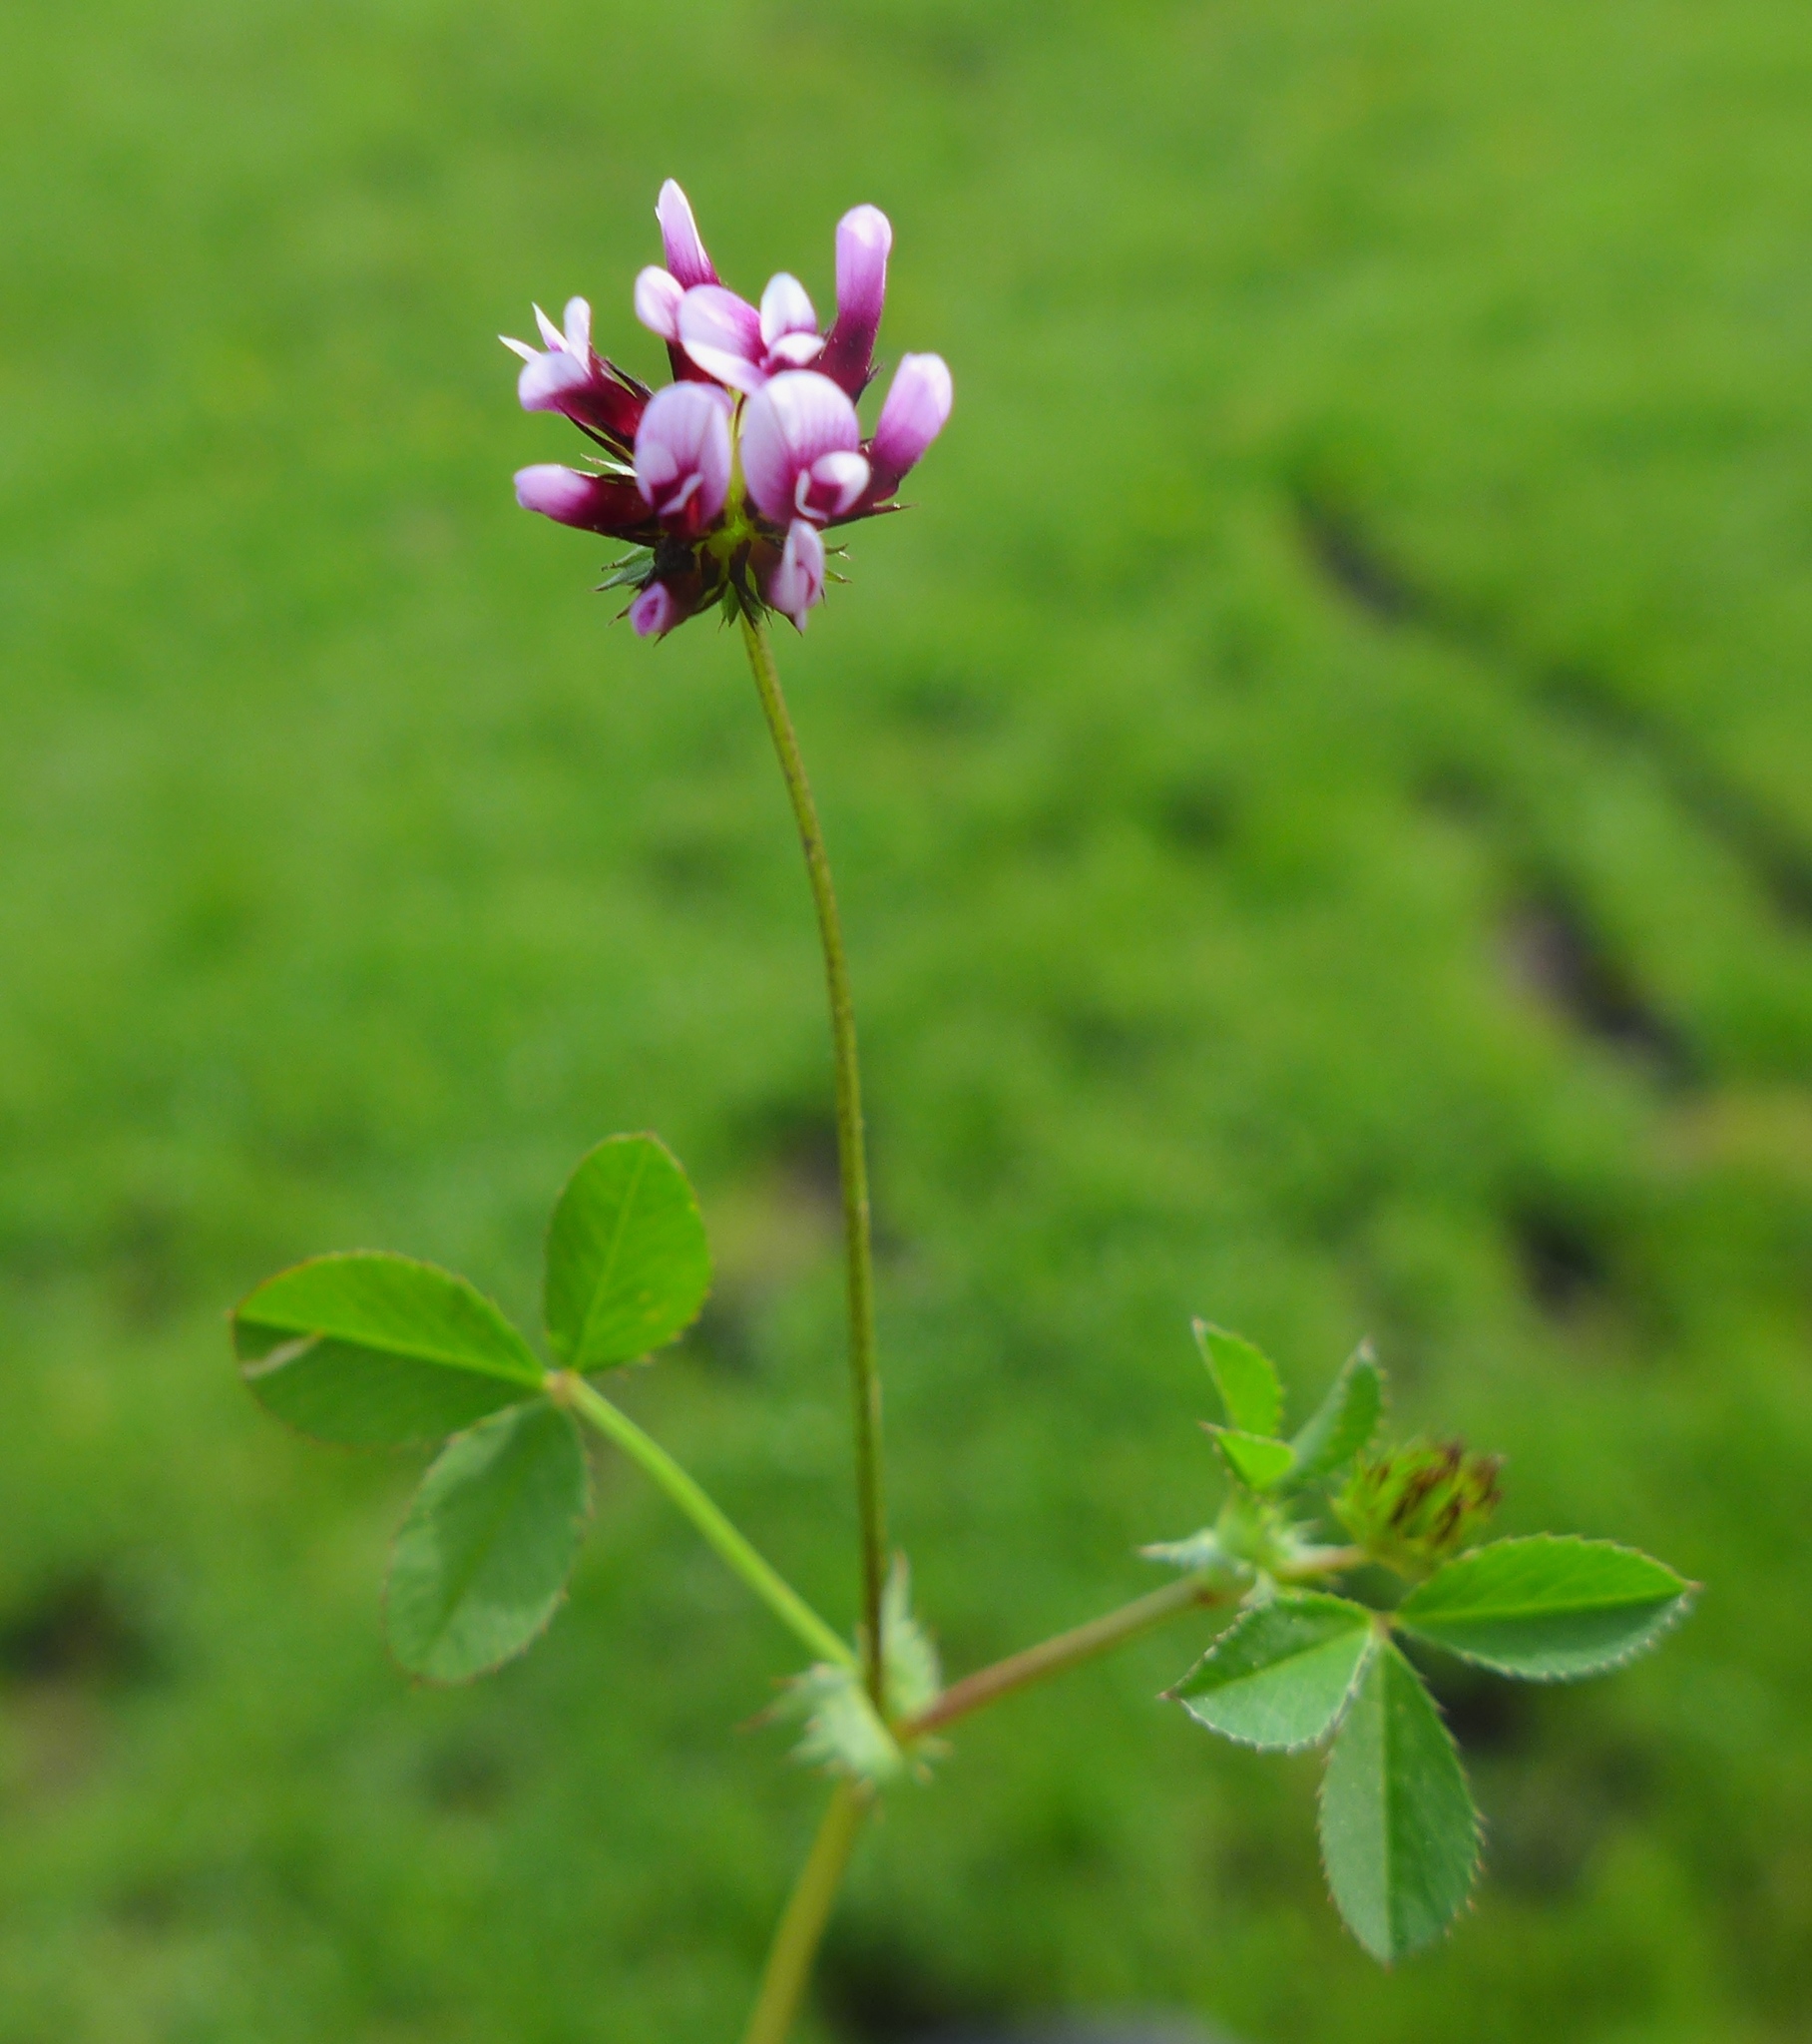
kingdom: Plantae
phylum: Tracheophyta
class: Magnoliopsida
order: Fabales
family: Fabaceae
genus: Trifolium
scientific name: Trifolium variegatum
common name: Whitetip clover
